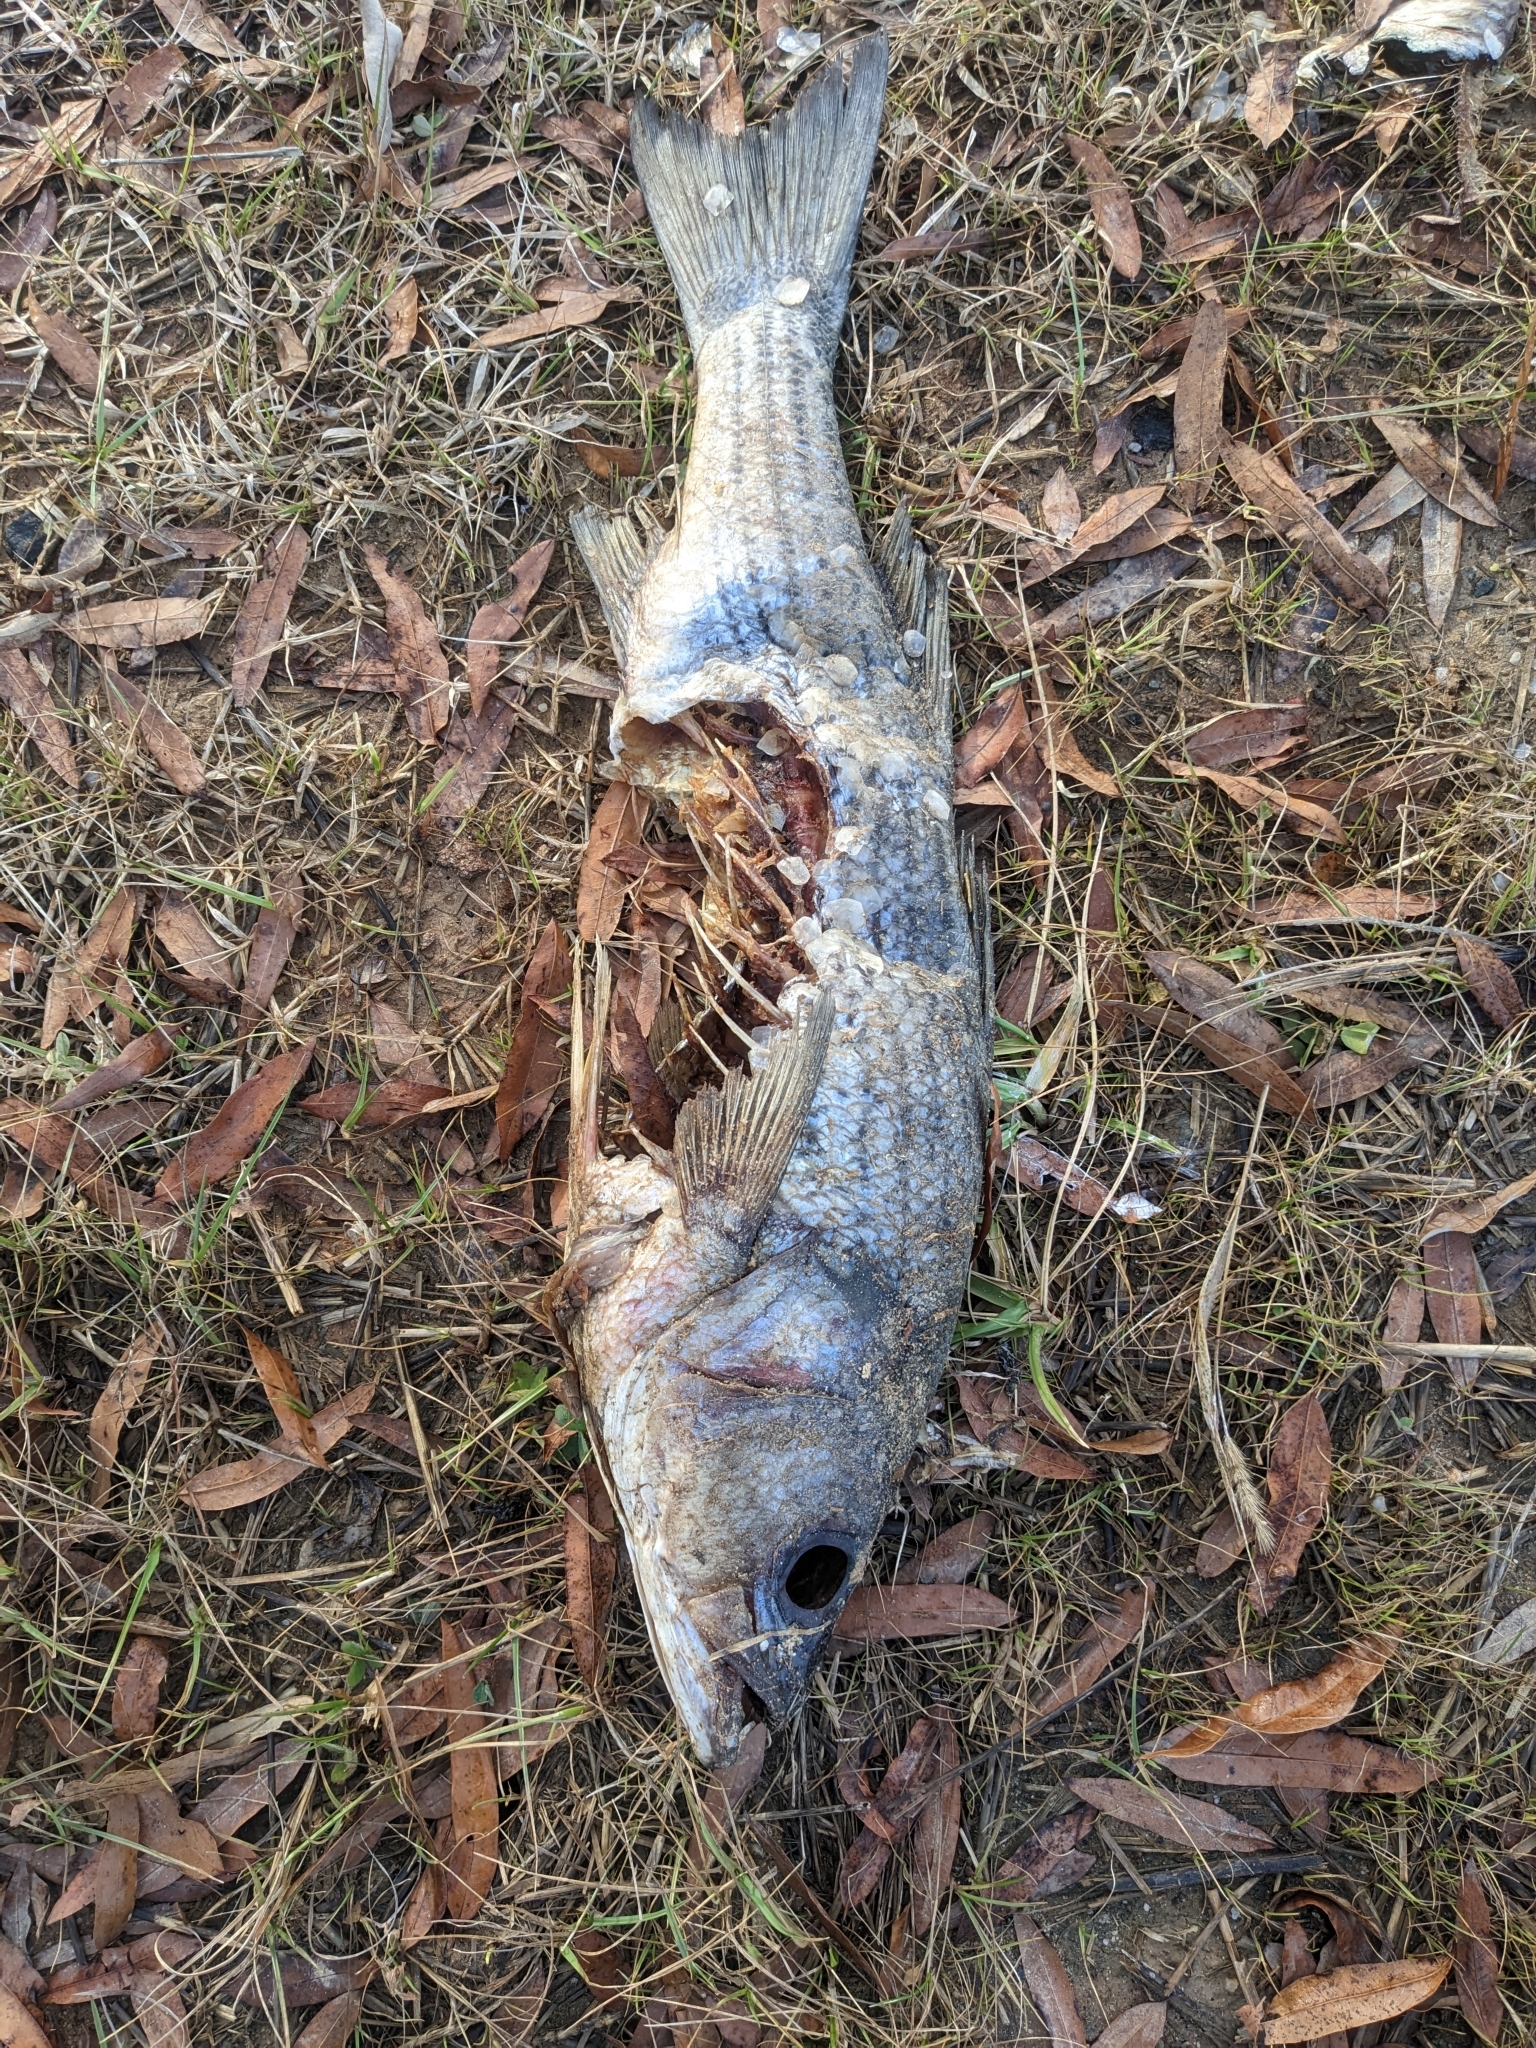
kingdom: Animalia
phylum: Chordata
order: Perciformes
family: Moronidae
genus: Morone
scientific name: Morone saxatilis
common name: Striped bass
